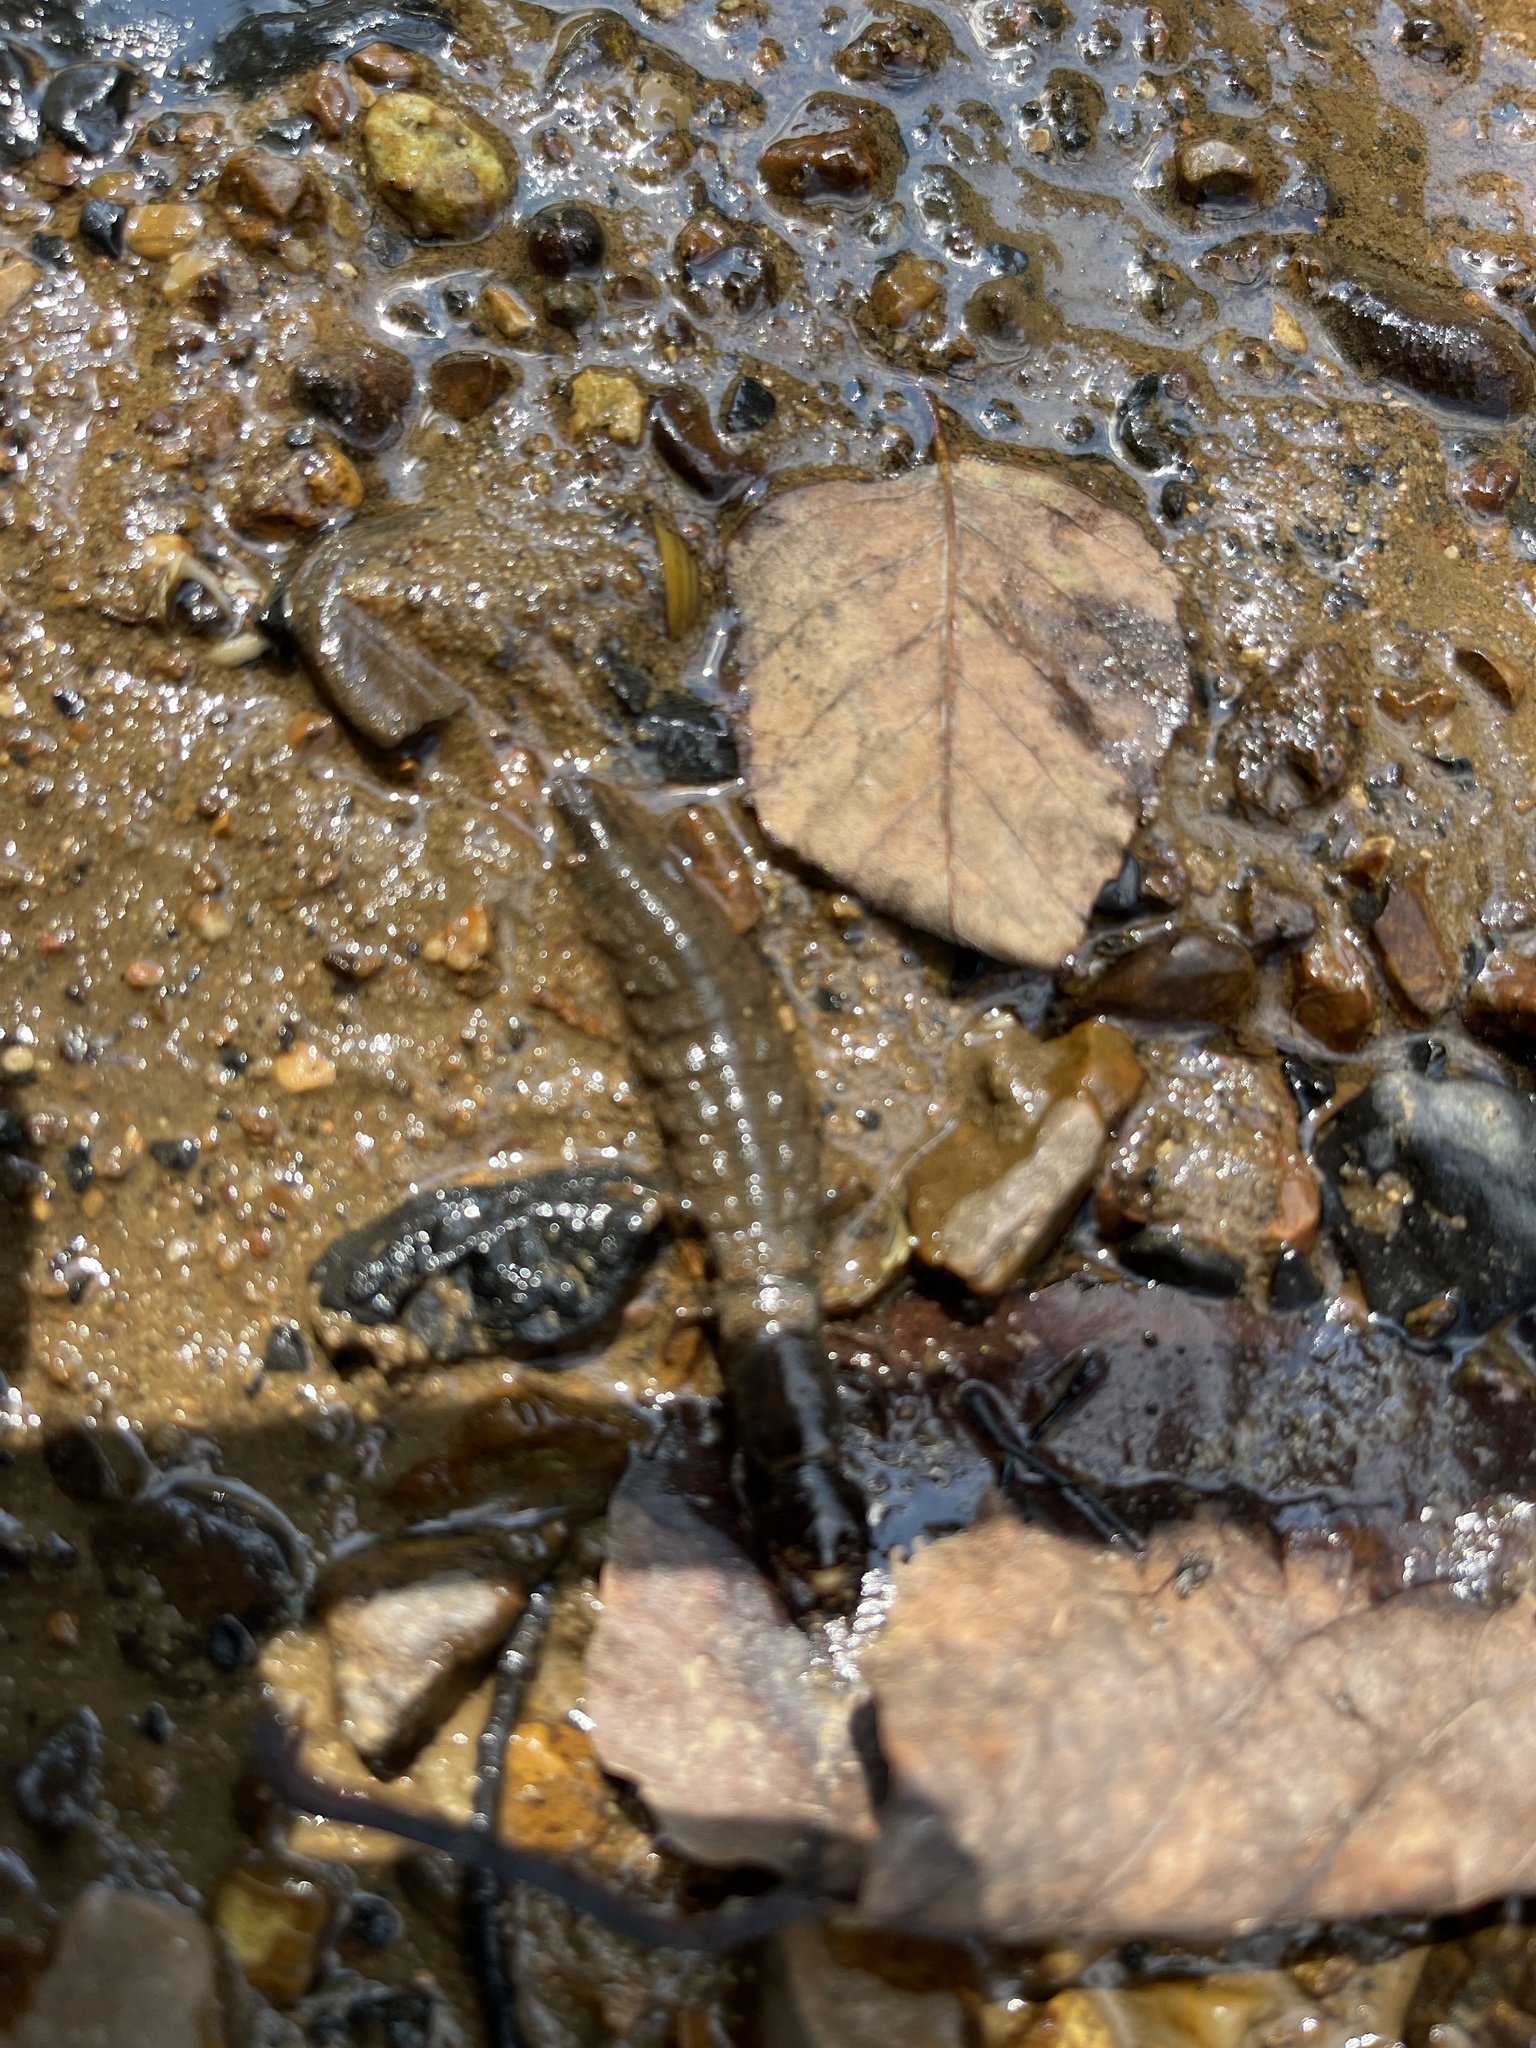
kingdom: Animalia
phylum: Arthropoda
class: Insecta
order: Megaloptera
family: Corydalidae
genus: Corydalus
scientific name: Corydalus cornutus
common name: Dobsonfly
